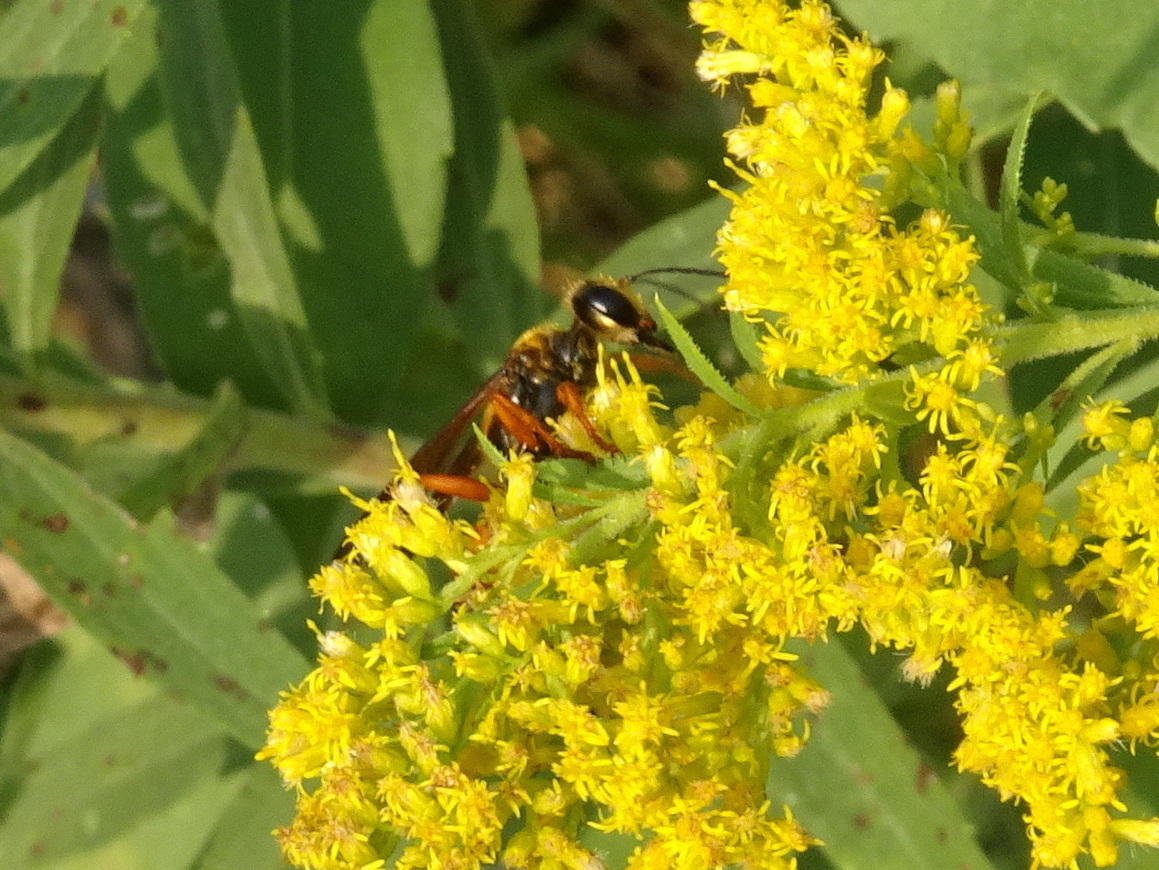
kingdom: Animalia
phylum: Arthropoda
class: Insecta
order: Hymenoptera
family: Sphecidae
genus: Sphex
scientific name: Sphex ichneumoneus
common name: Great golden digger wasp
